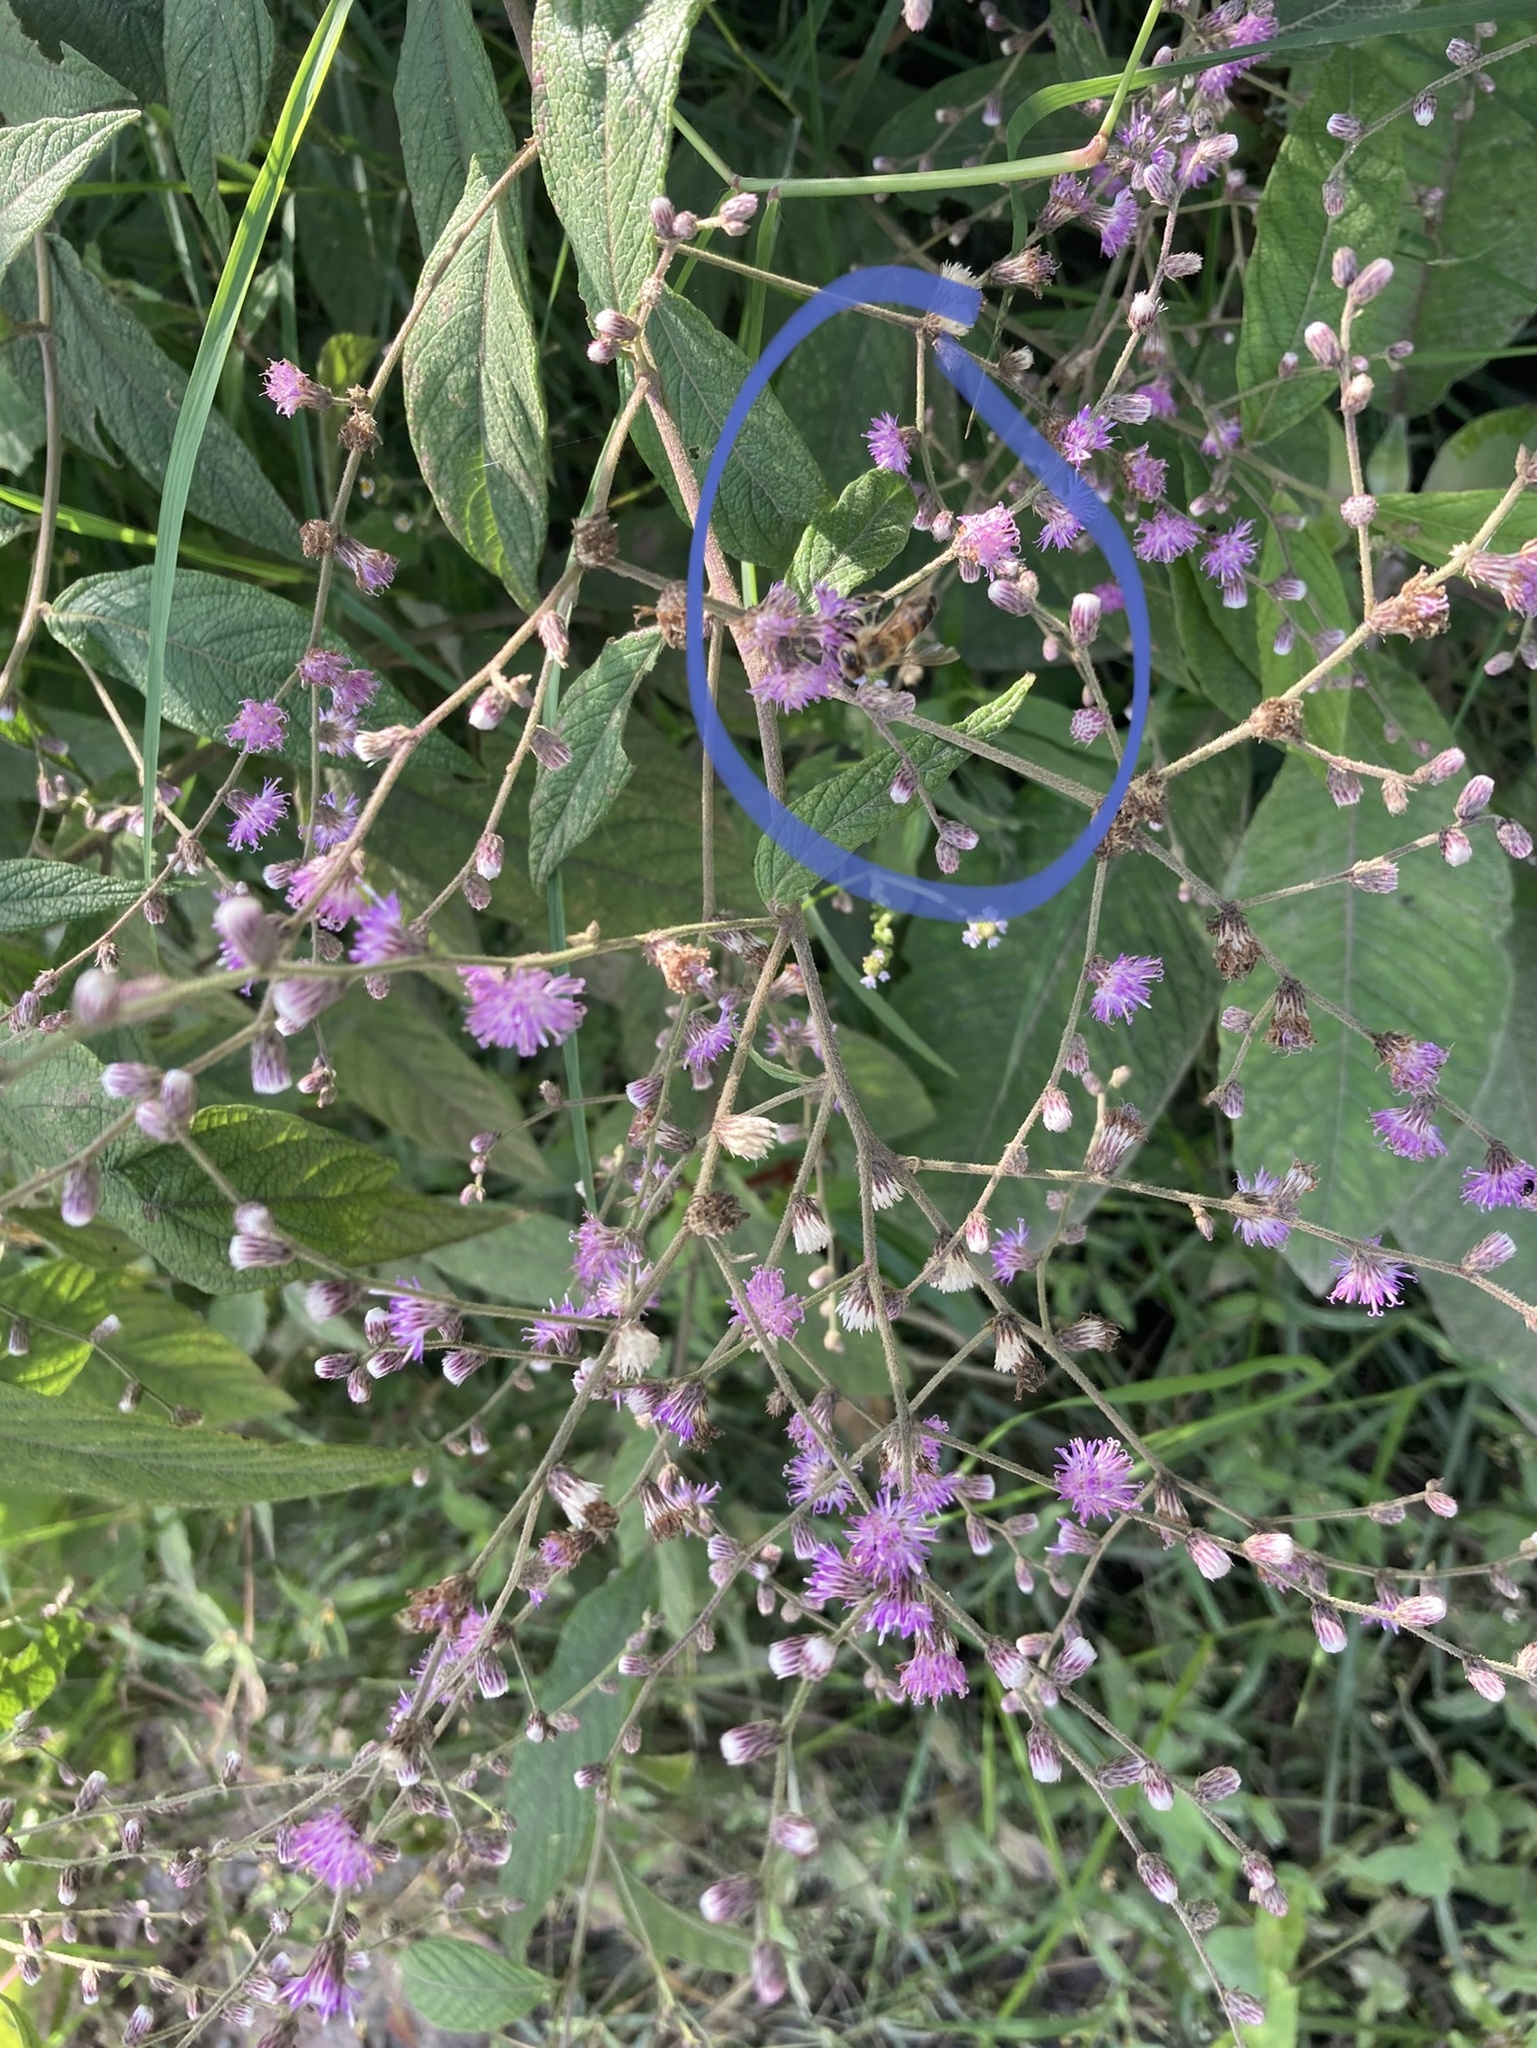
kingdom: Animalia
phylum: Arthropoda
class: Insecta
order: Hymenoptera
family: Apidae
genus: Apis
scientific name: Apis mellifera
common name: Honey bee
